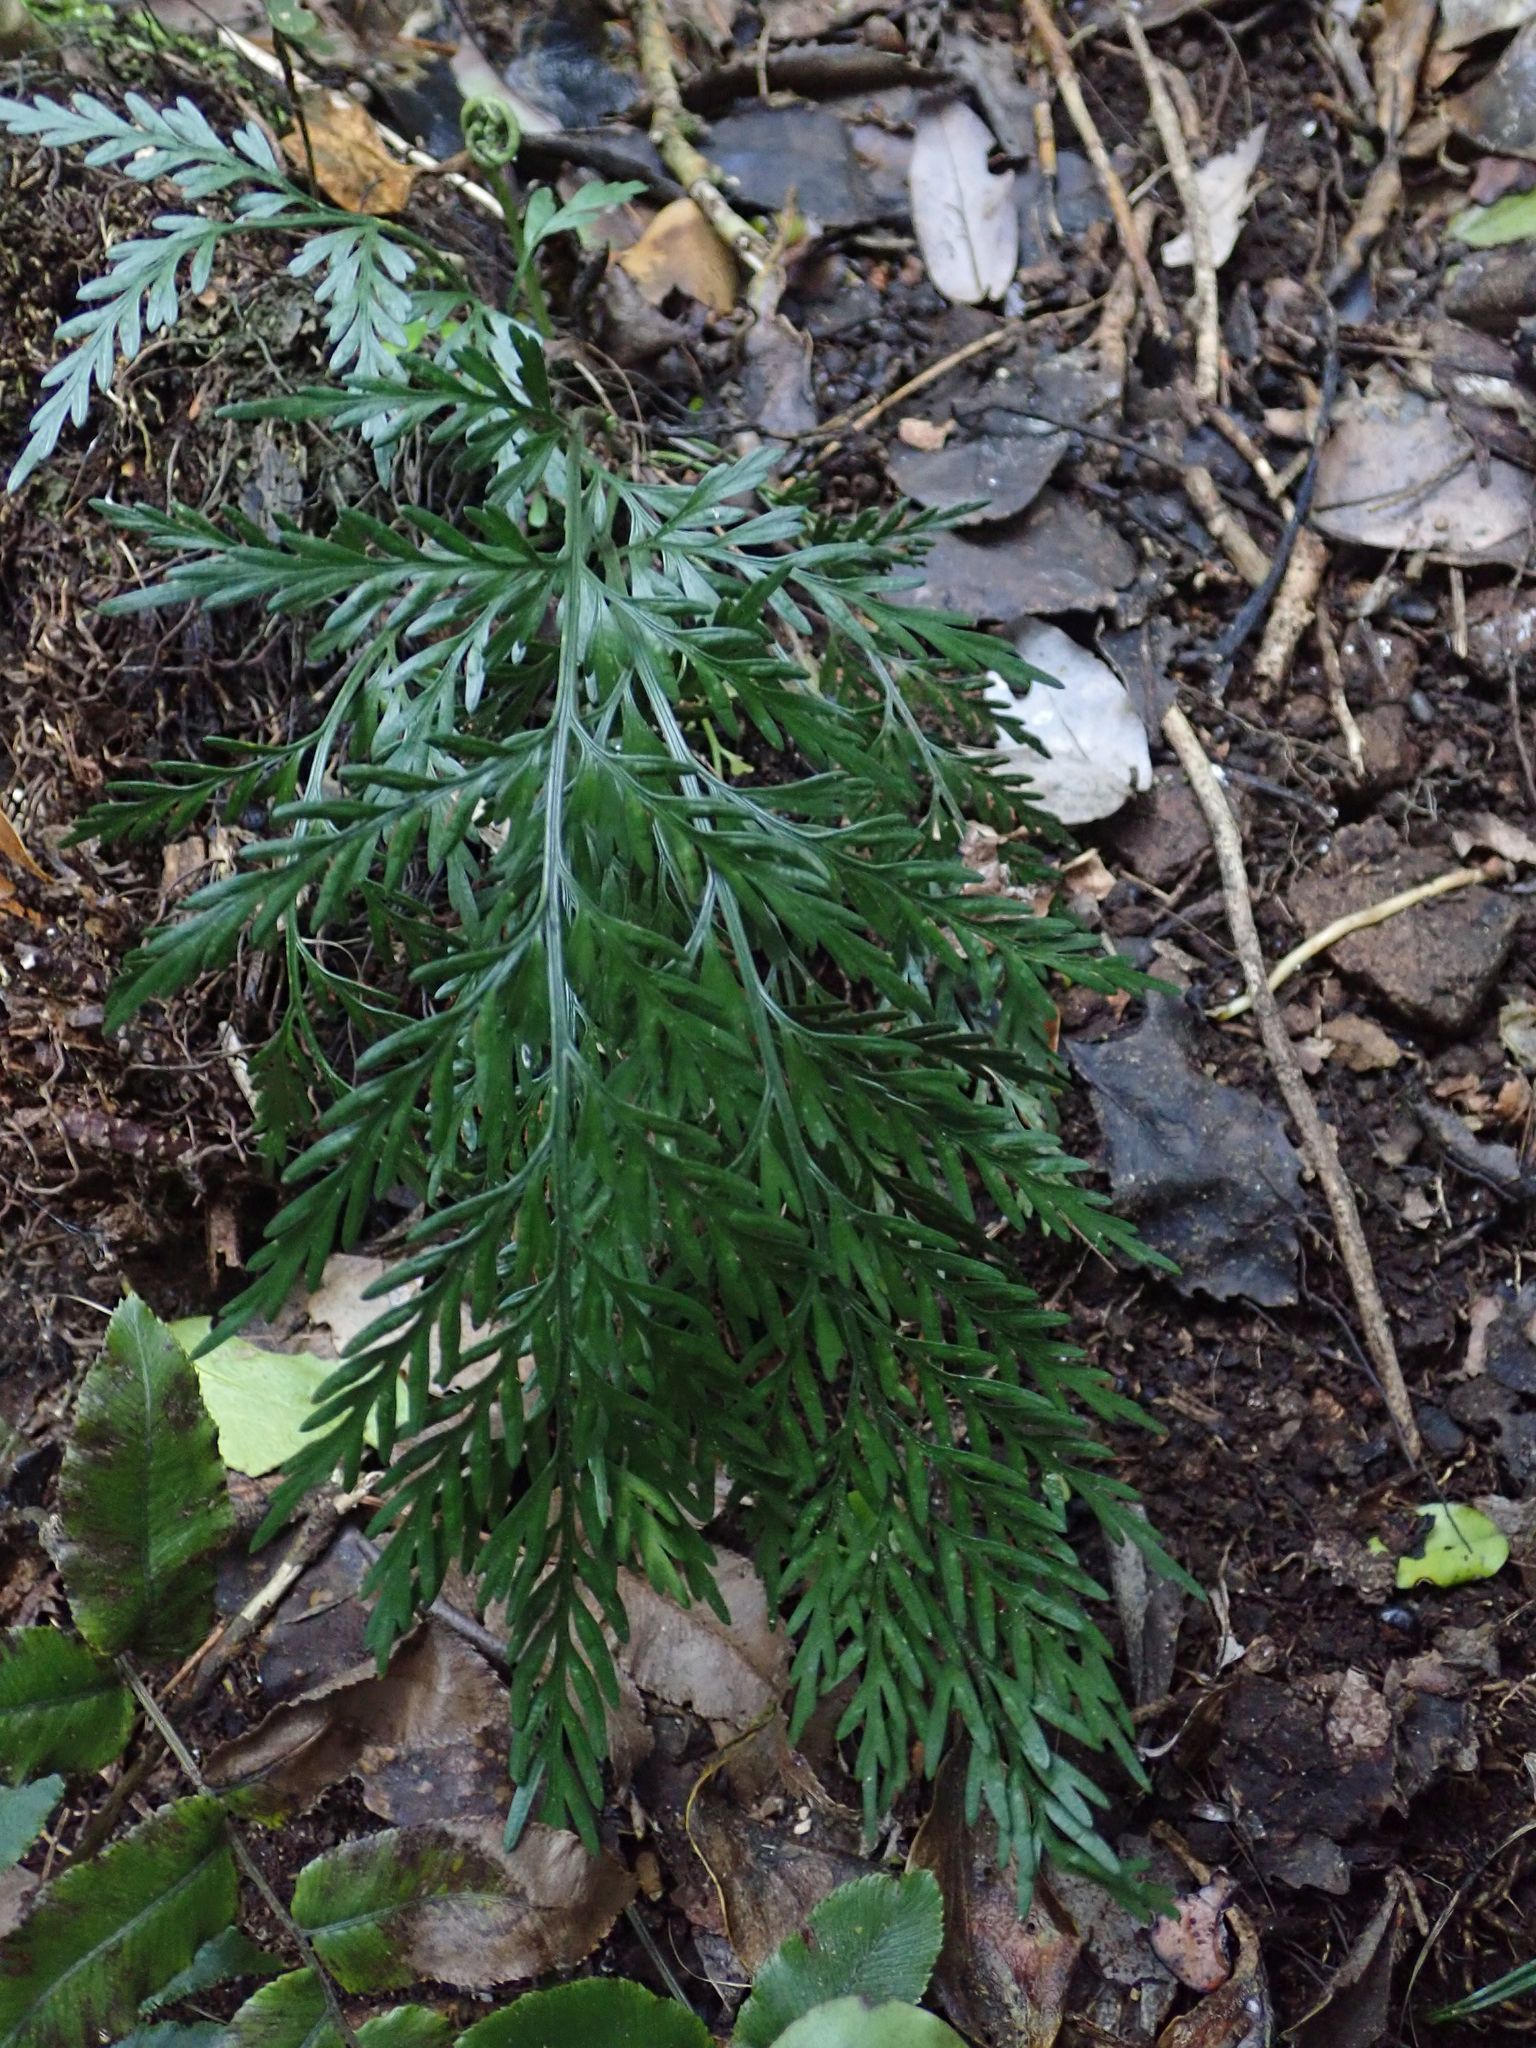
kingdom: Plantae
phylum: Tracheophyta
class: Polypodiopsida
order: Polypodiales
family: Aspleniaceae
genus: Asplenium
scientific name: Asplenium appendiculatum
